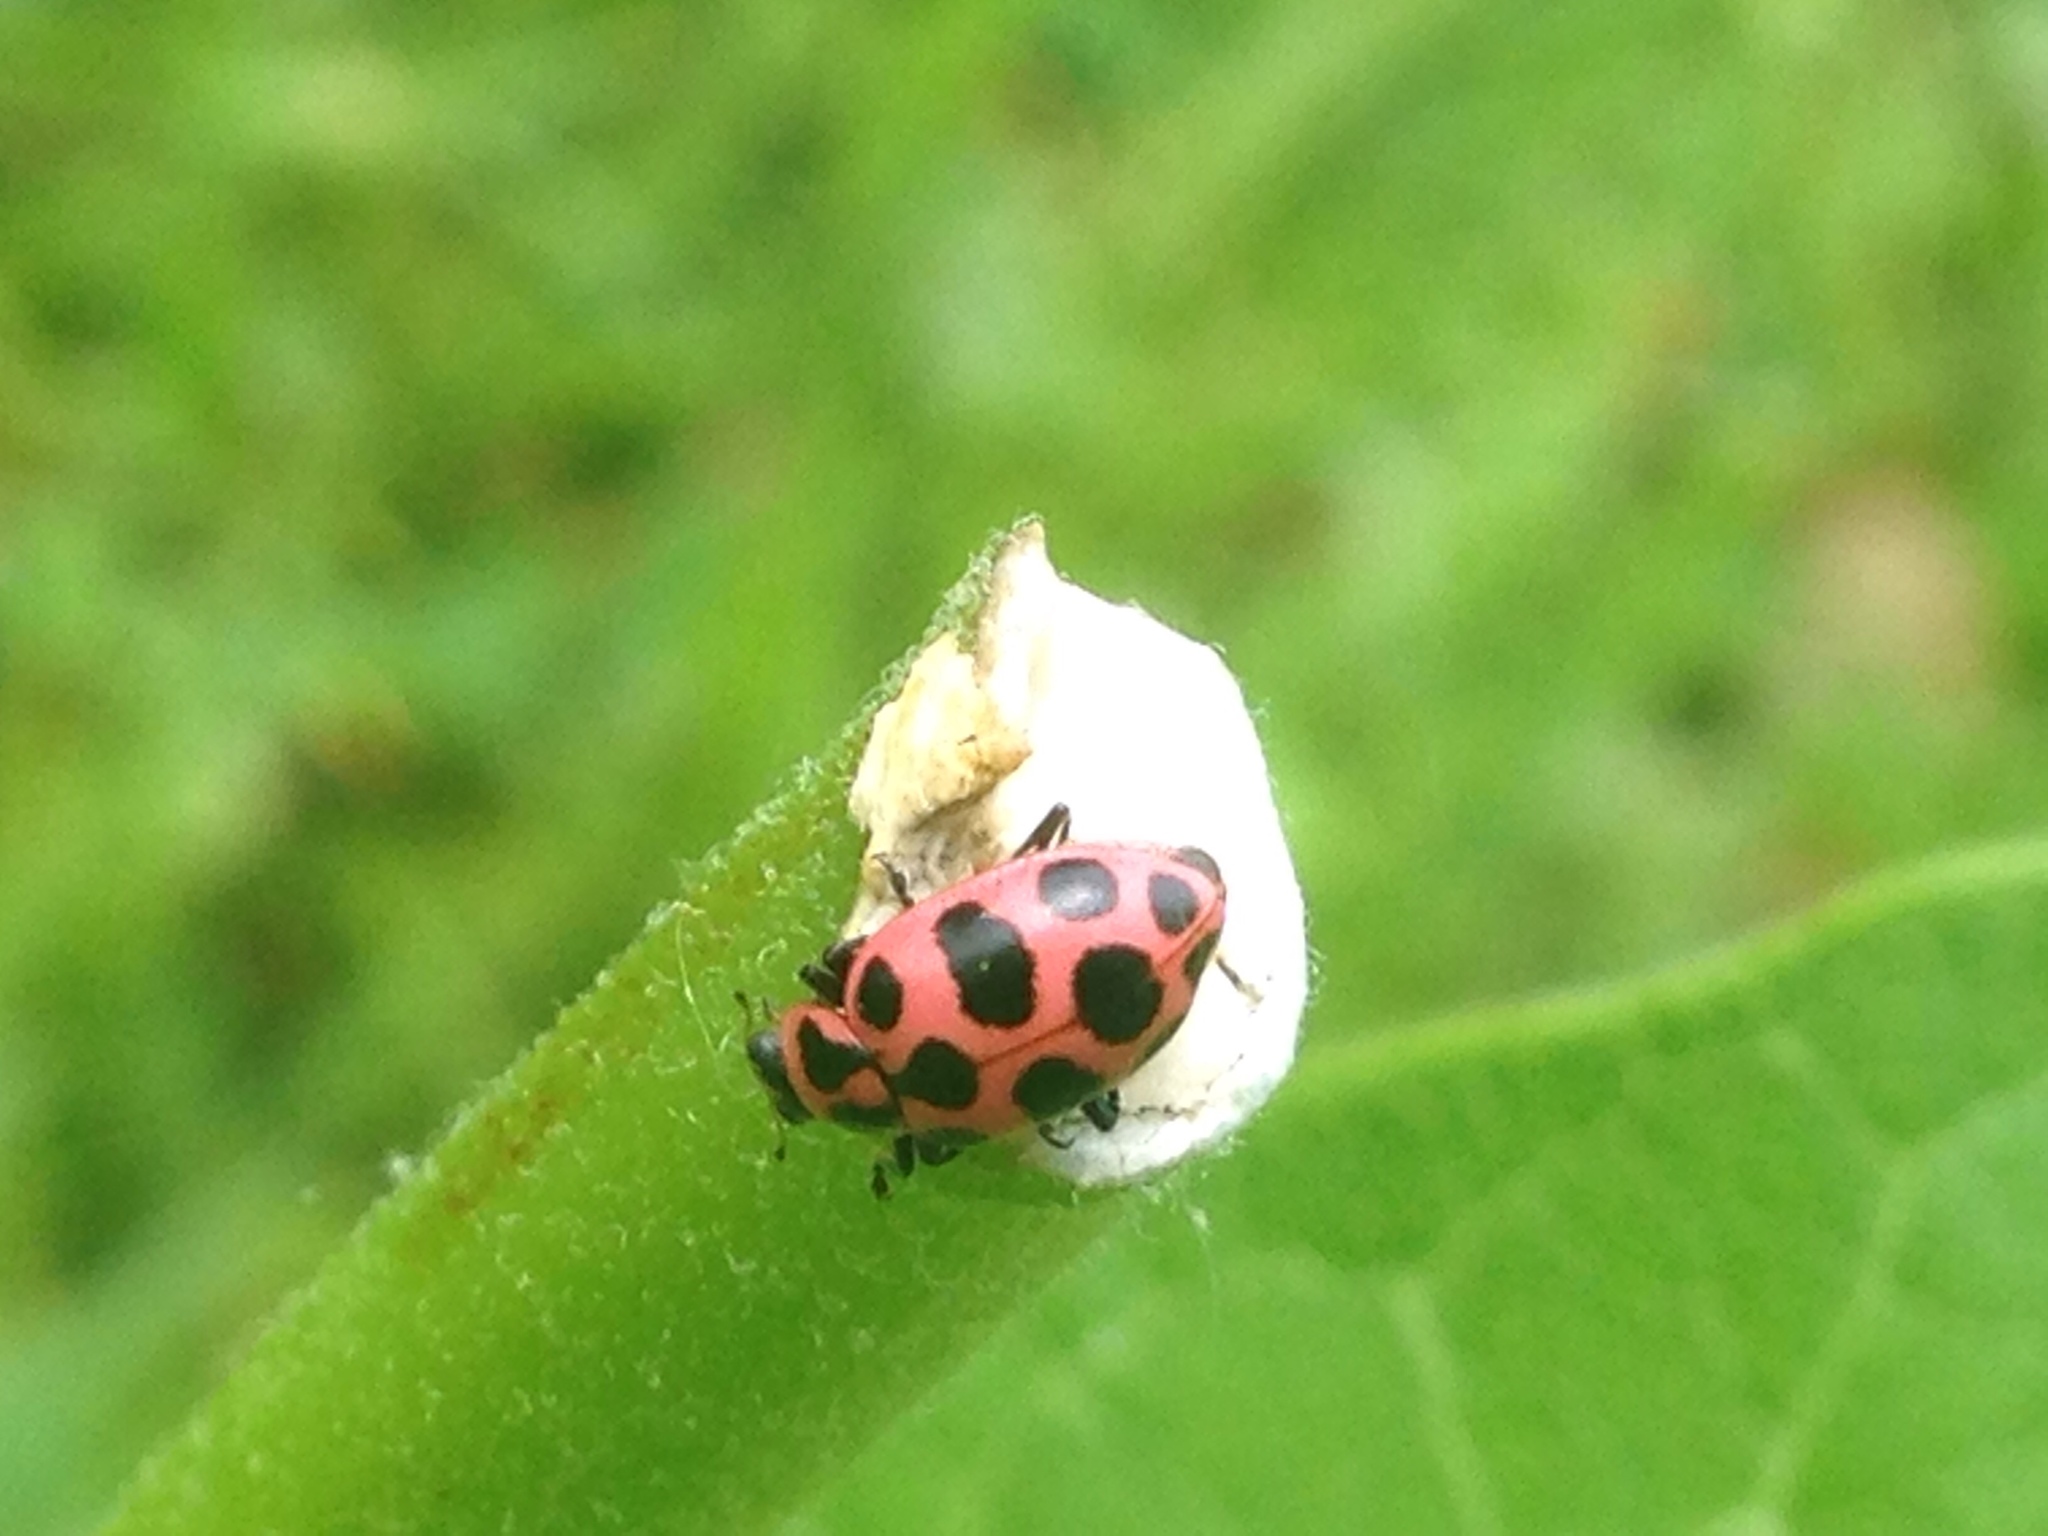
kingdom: Animalia
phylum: Arthropoda
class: Insecta
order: Coleoptera
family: Coccinellidae
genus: Coleomegilla
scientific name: Coleomegilla maculata
